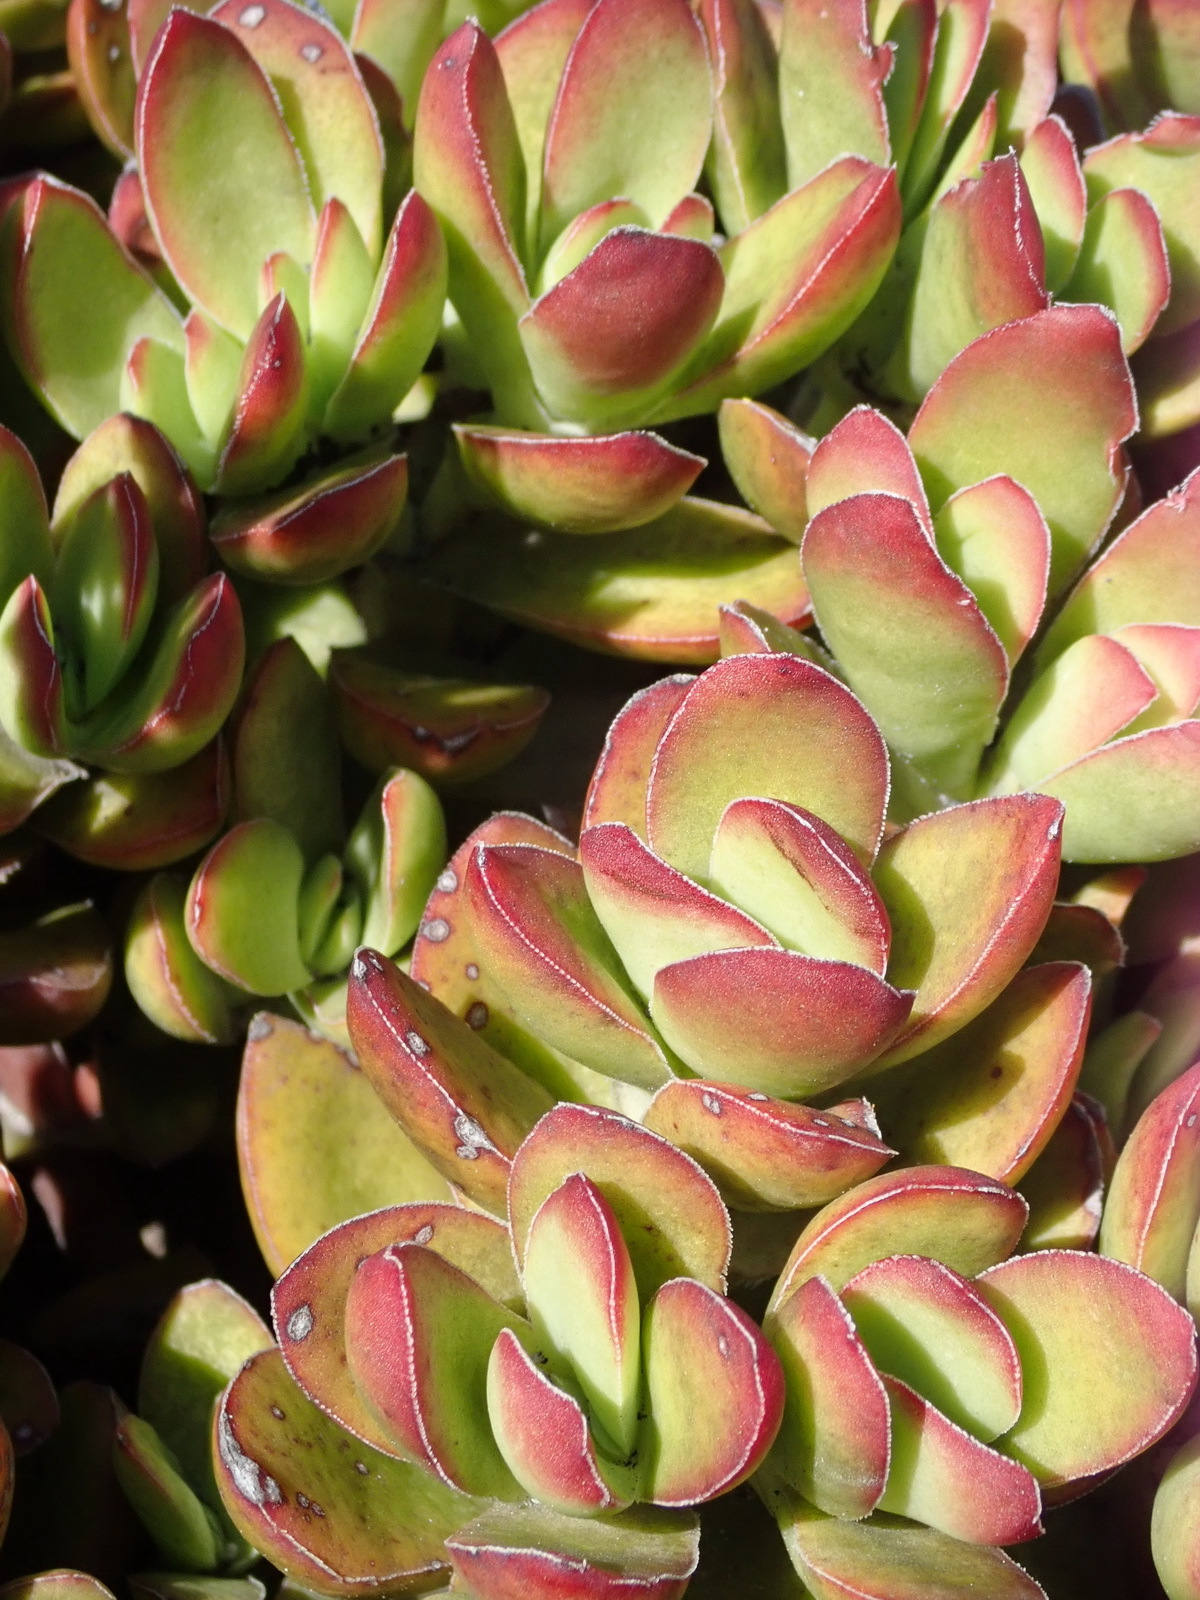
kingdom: Plantae
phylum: Tracheophyta
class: Magnoliopsida
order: Saxifragales
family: Crassulaceae
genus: Crassula
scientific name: Crassula rubricaulis
